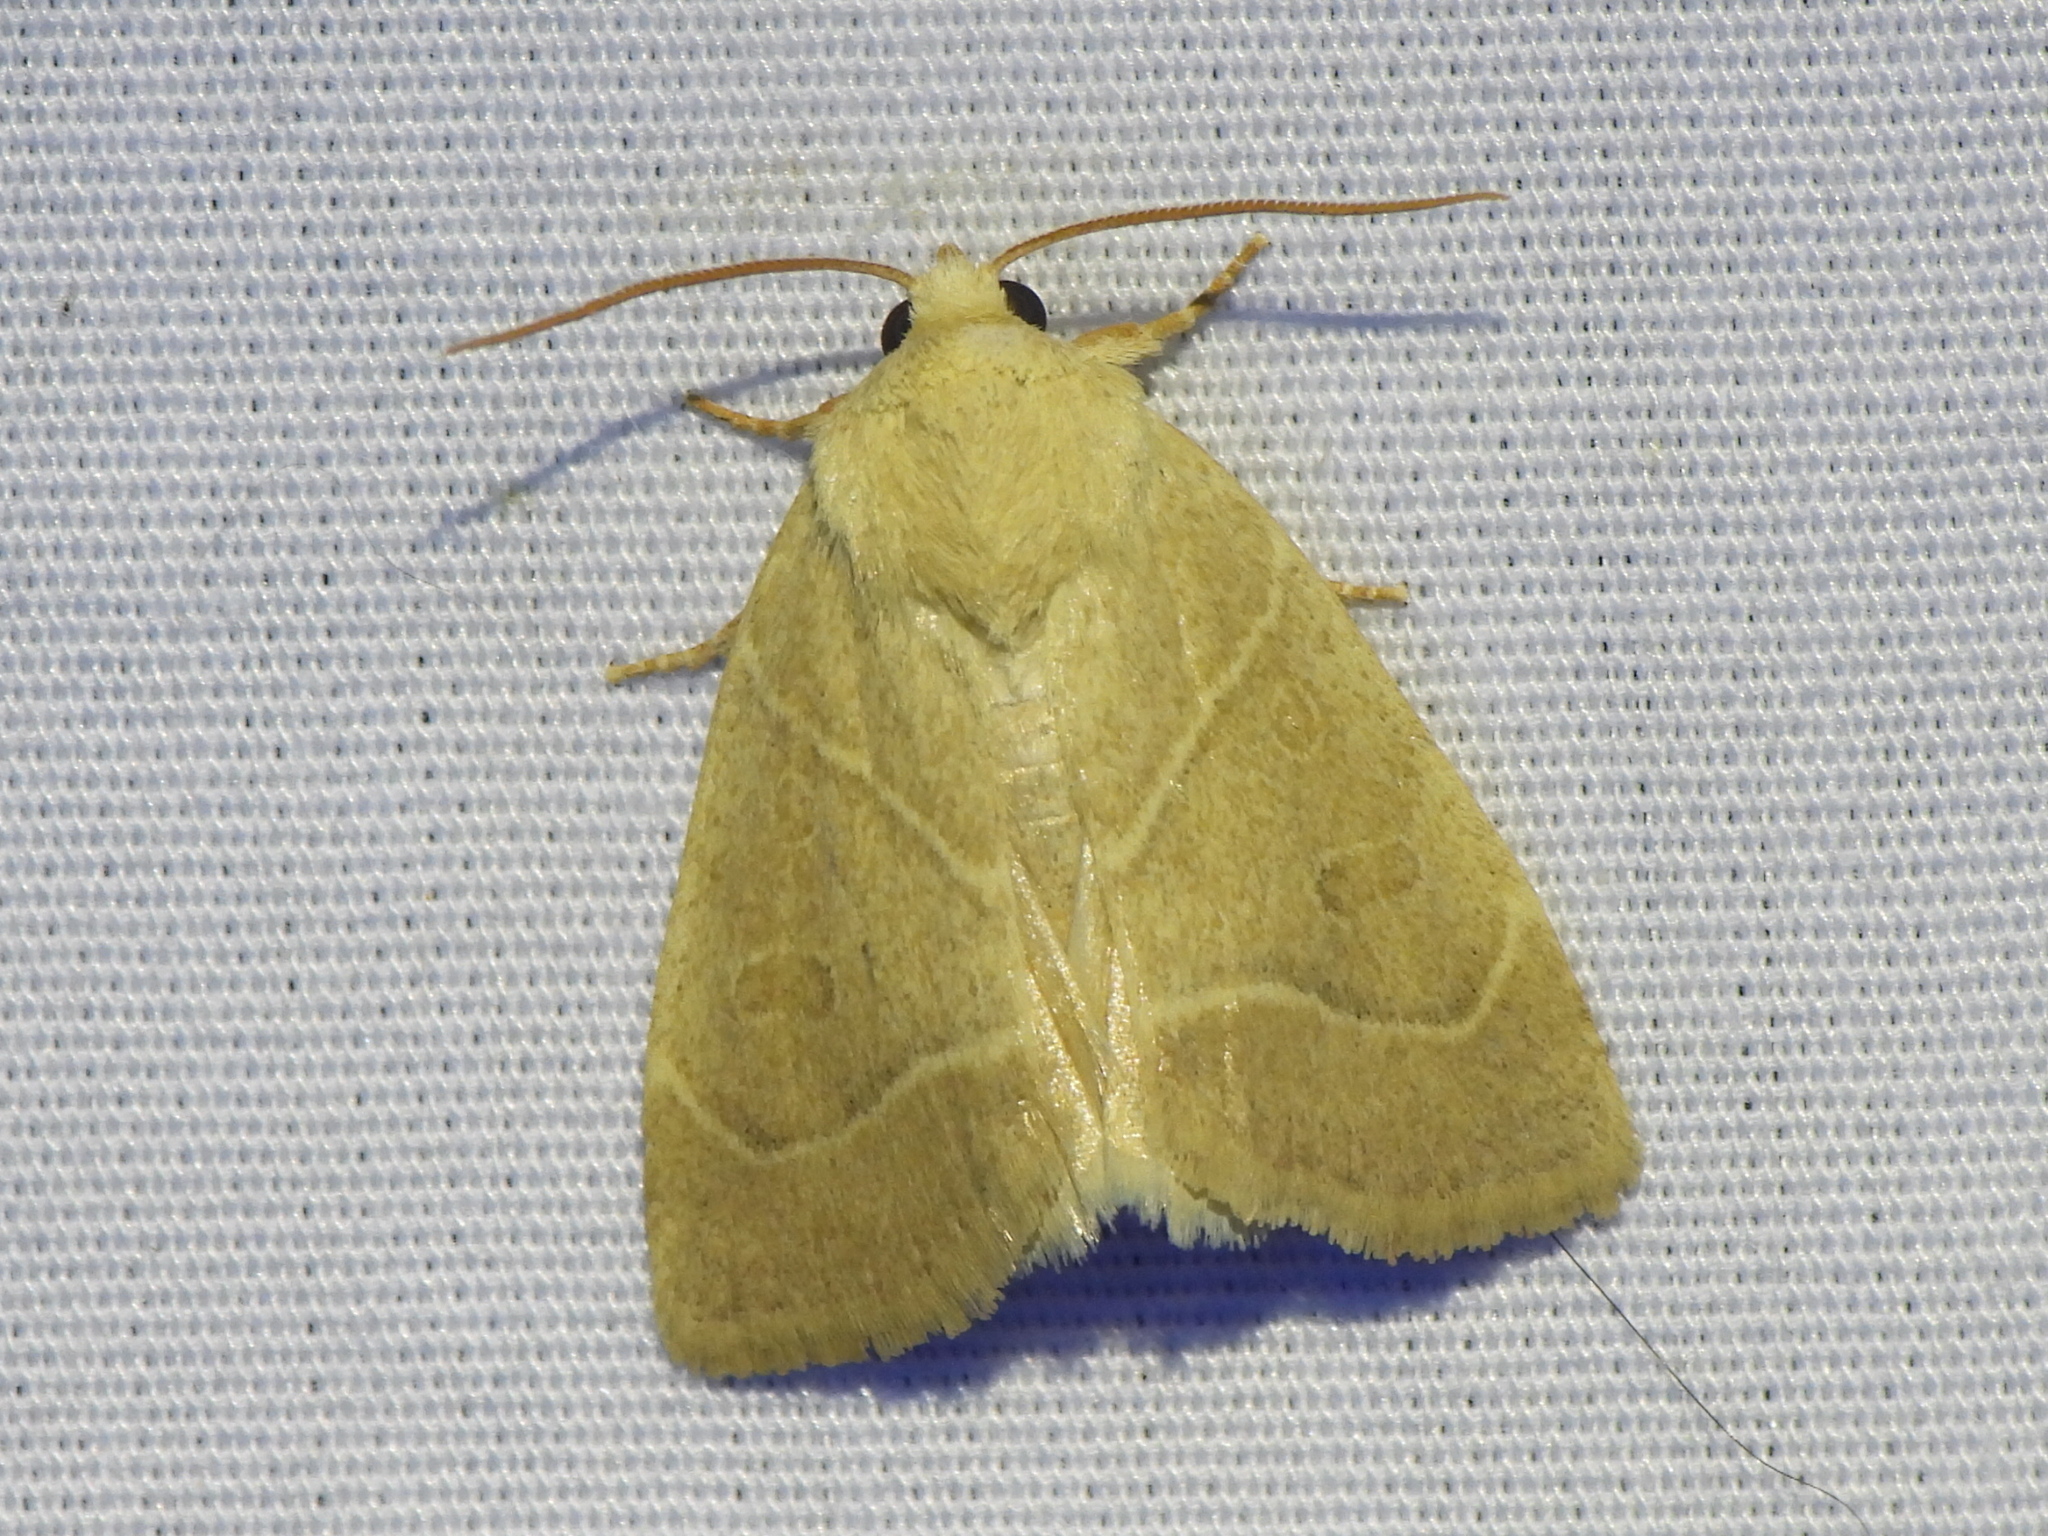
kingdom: Animalia
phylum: Arthropoda
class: Insecta
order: Lepidoptera
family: Noctuidae
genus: Cosmia
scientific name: Cosmia calami
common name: American dun-bar moth
